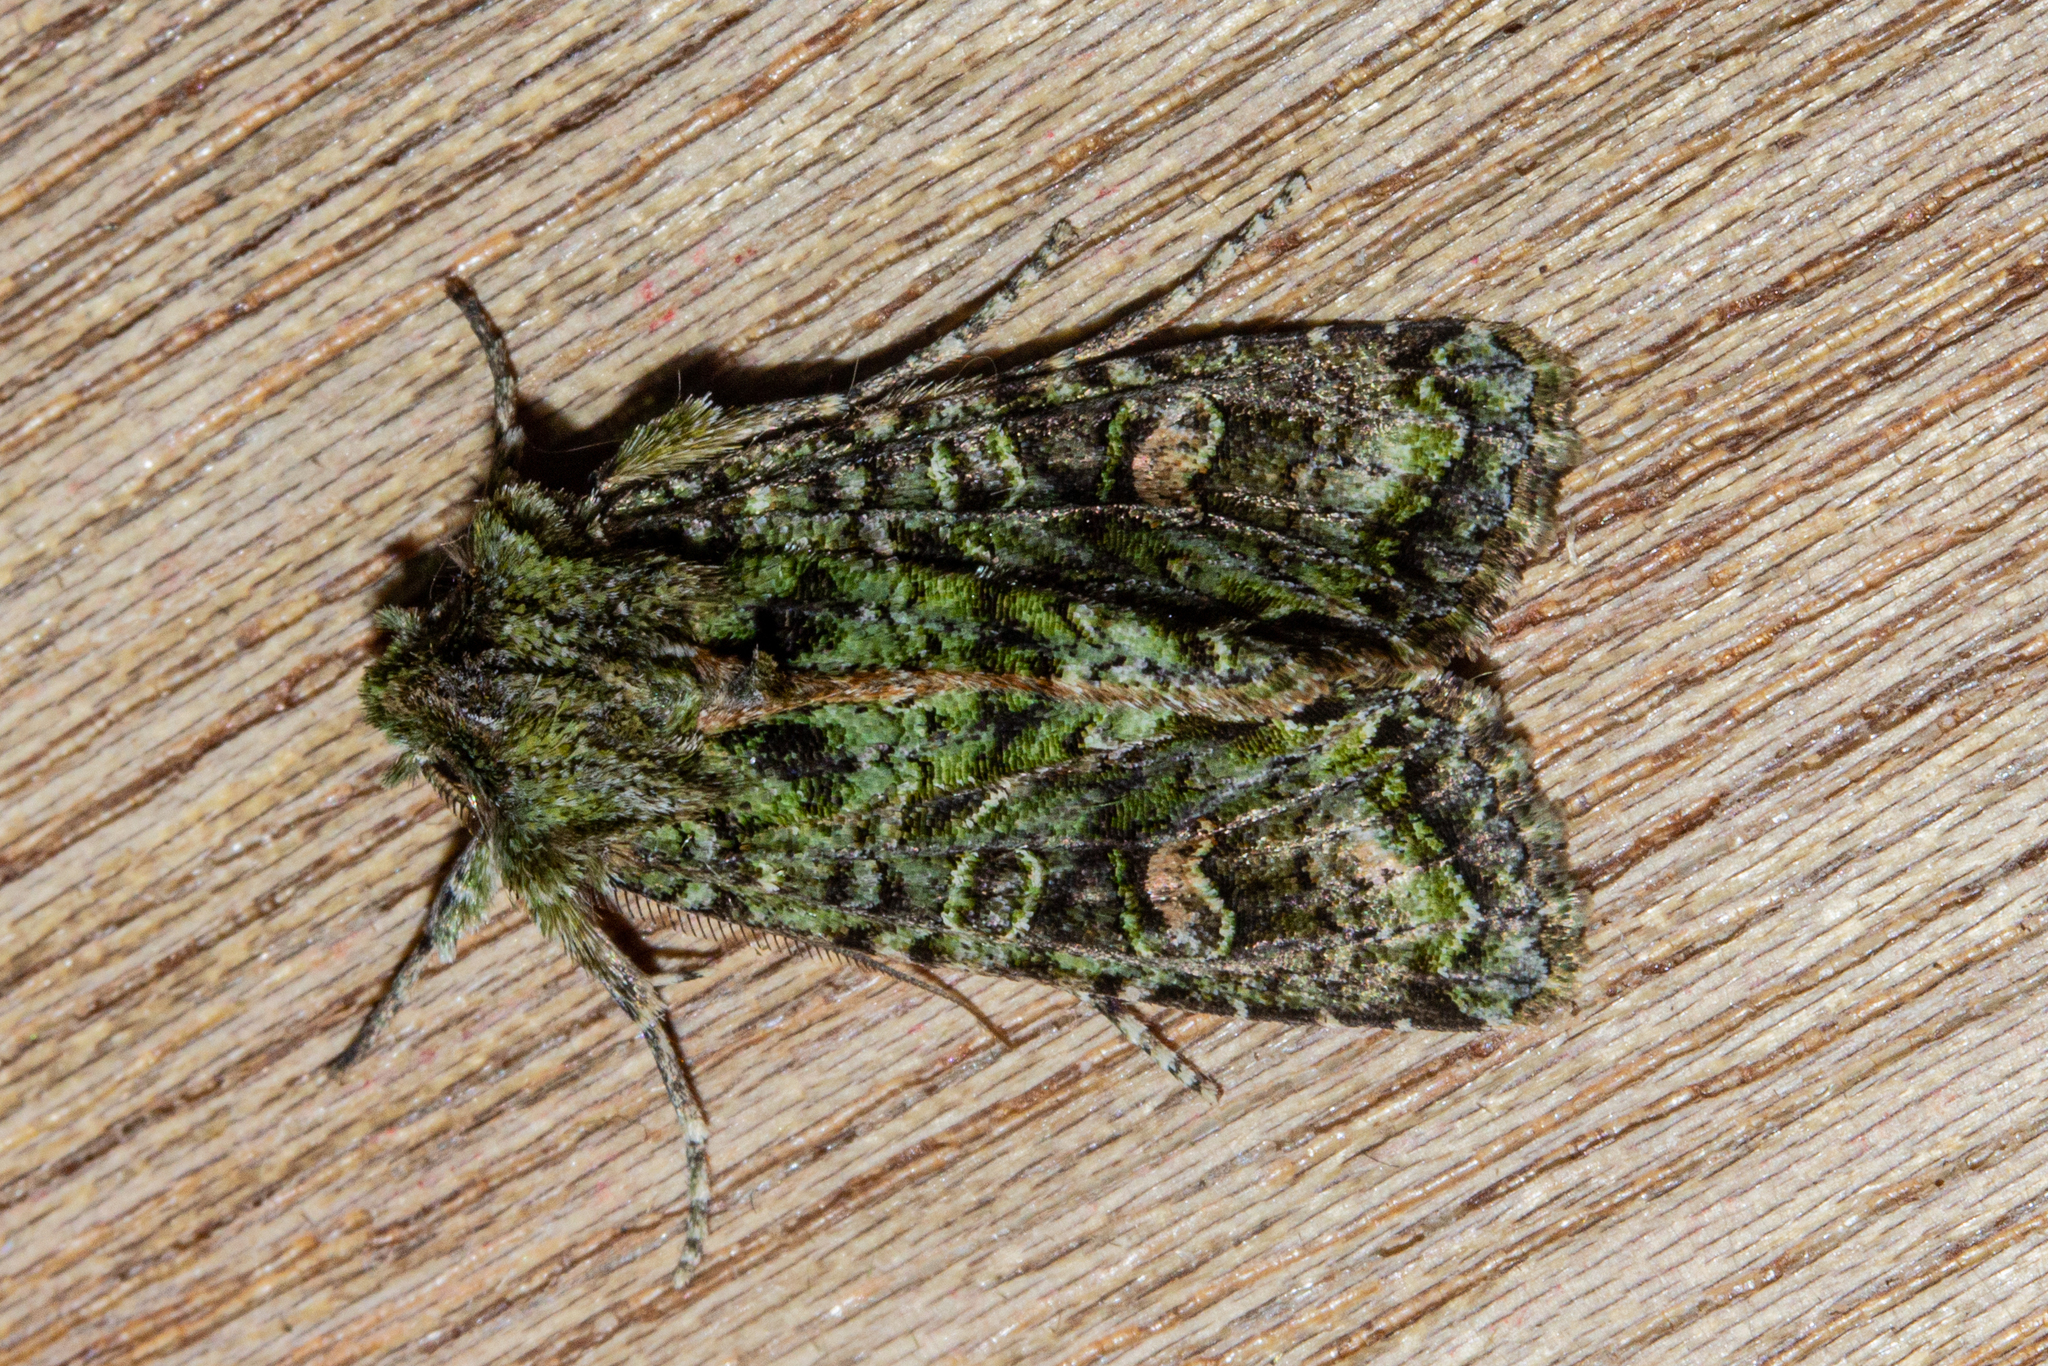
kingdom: Animalia
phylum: Arthropoda
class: Insecta
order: Lepidoptera
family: Noctuidae
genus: Ichneutica
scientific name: Ichneutica
